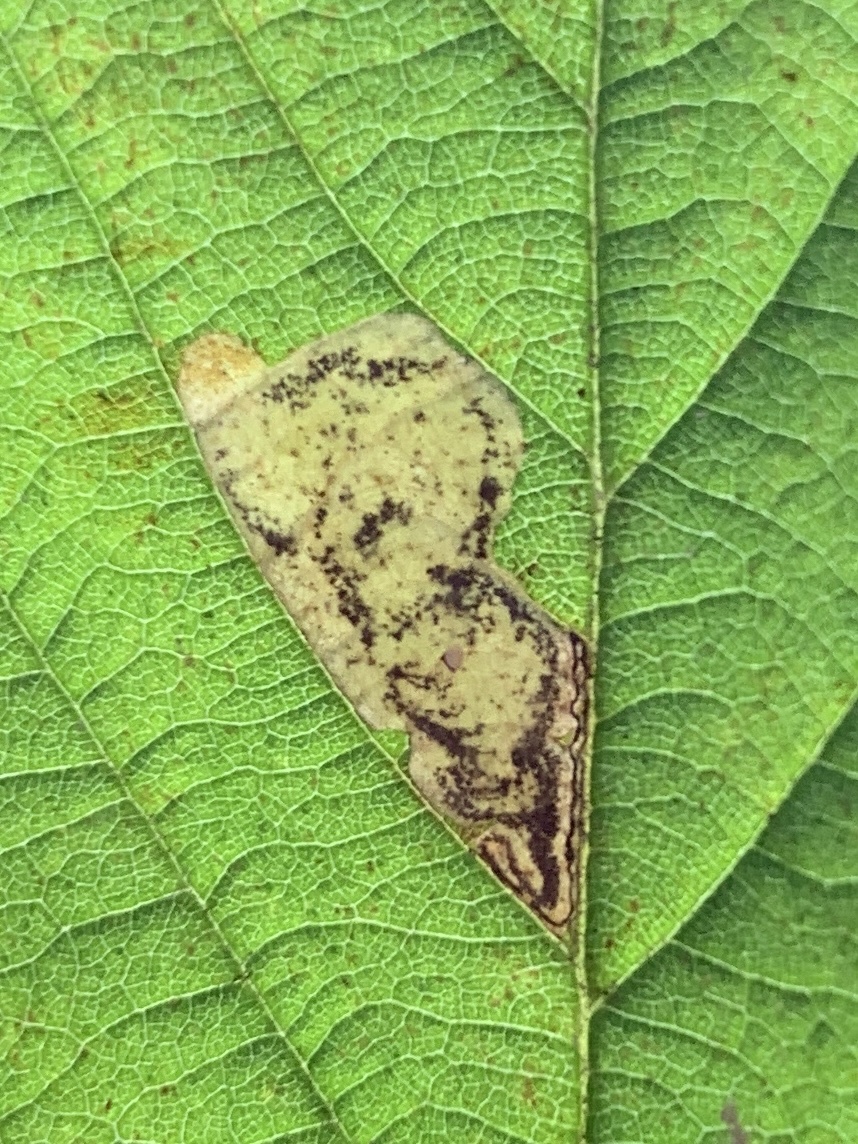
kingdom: Animalia
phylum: Arthropoda
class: Insecta
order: Lepidoptera
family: Nepticulidae
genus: Ectoedemia
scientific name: Ectoedemia rubifoliella
